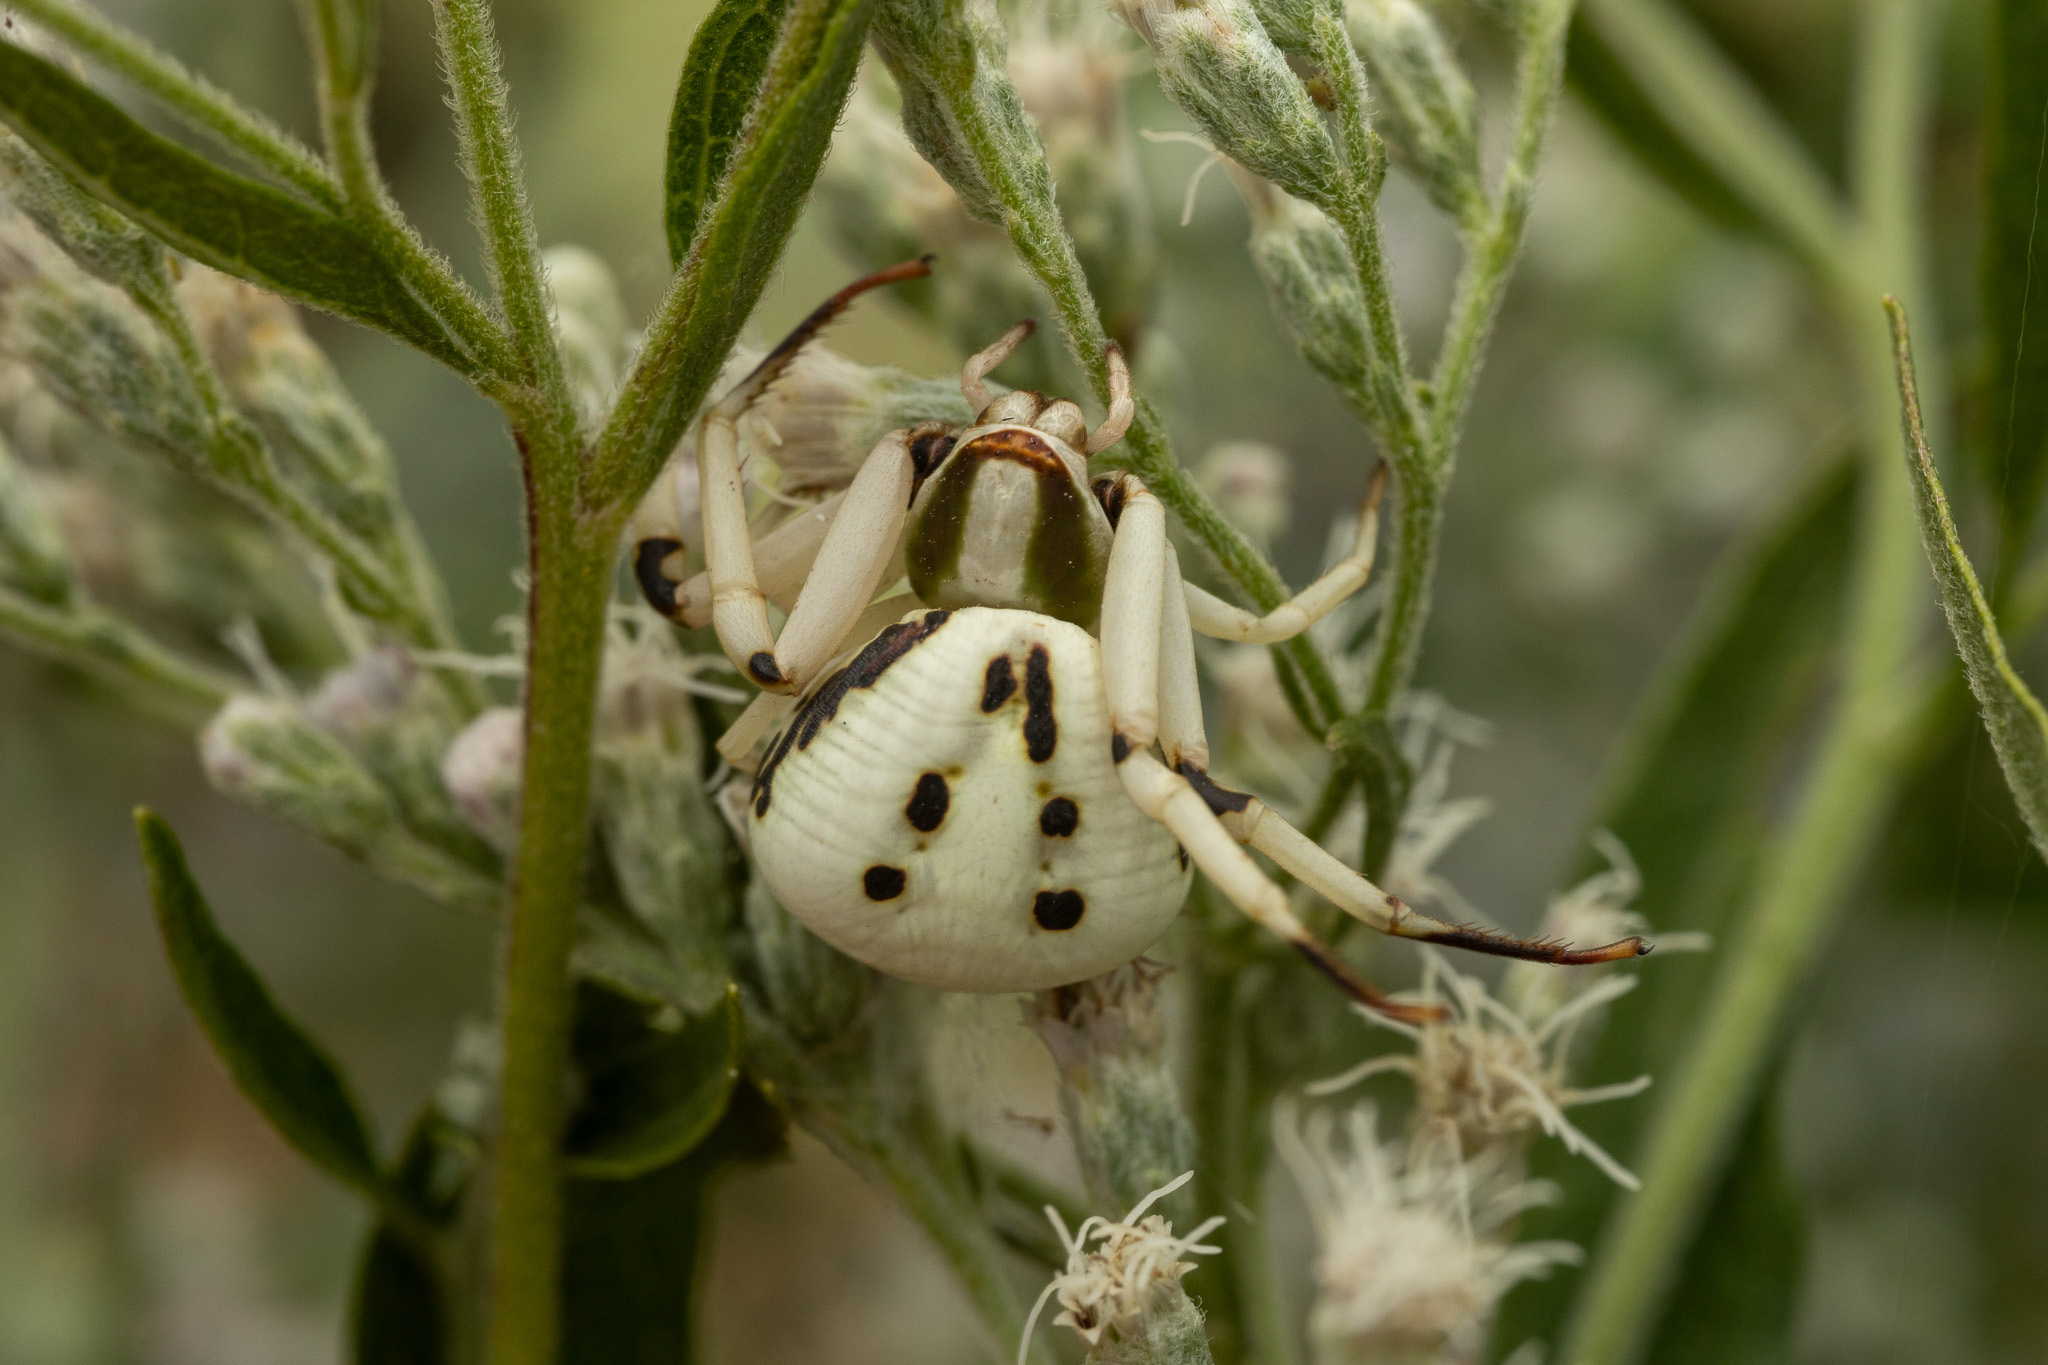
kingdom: Animalia
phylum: Arthropoda
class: Arachnida
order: Araneae
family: Thomisidae
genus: Misumenoides
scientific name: Misumenoides formosipes
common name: White-banded crab spider
